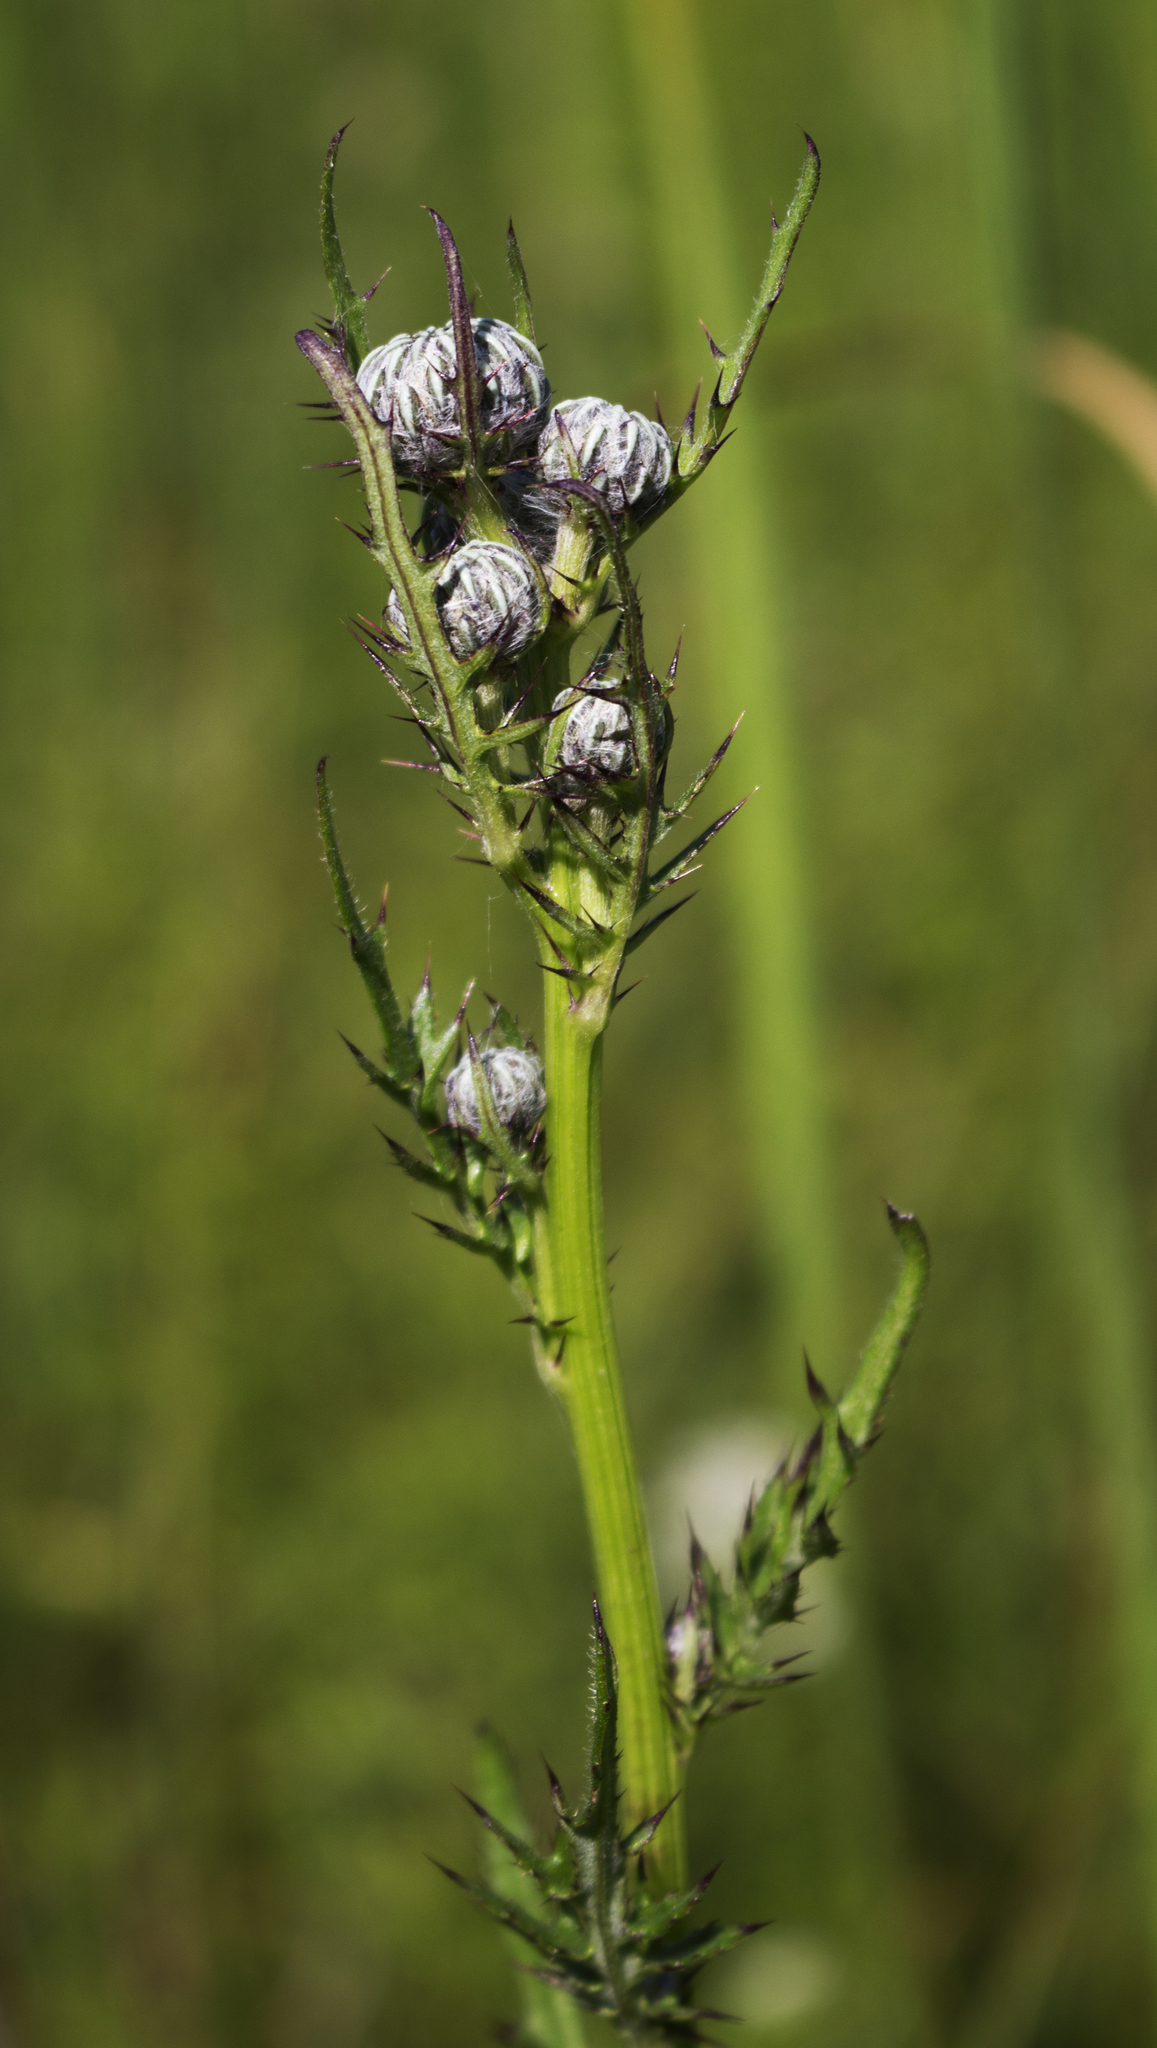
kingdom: Plantae
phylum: Tracheophyta
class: Magnoliopsida
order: Asterales
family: Asteraceae
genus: Cirsium
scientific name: Cirsium muticum
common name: Dunce-nettle
